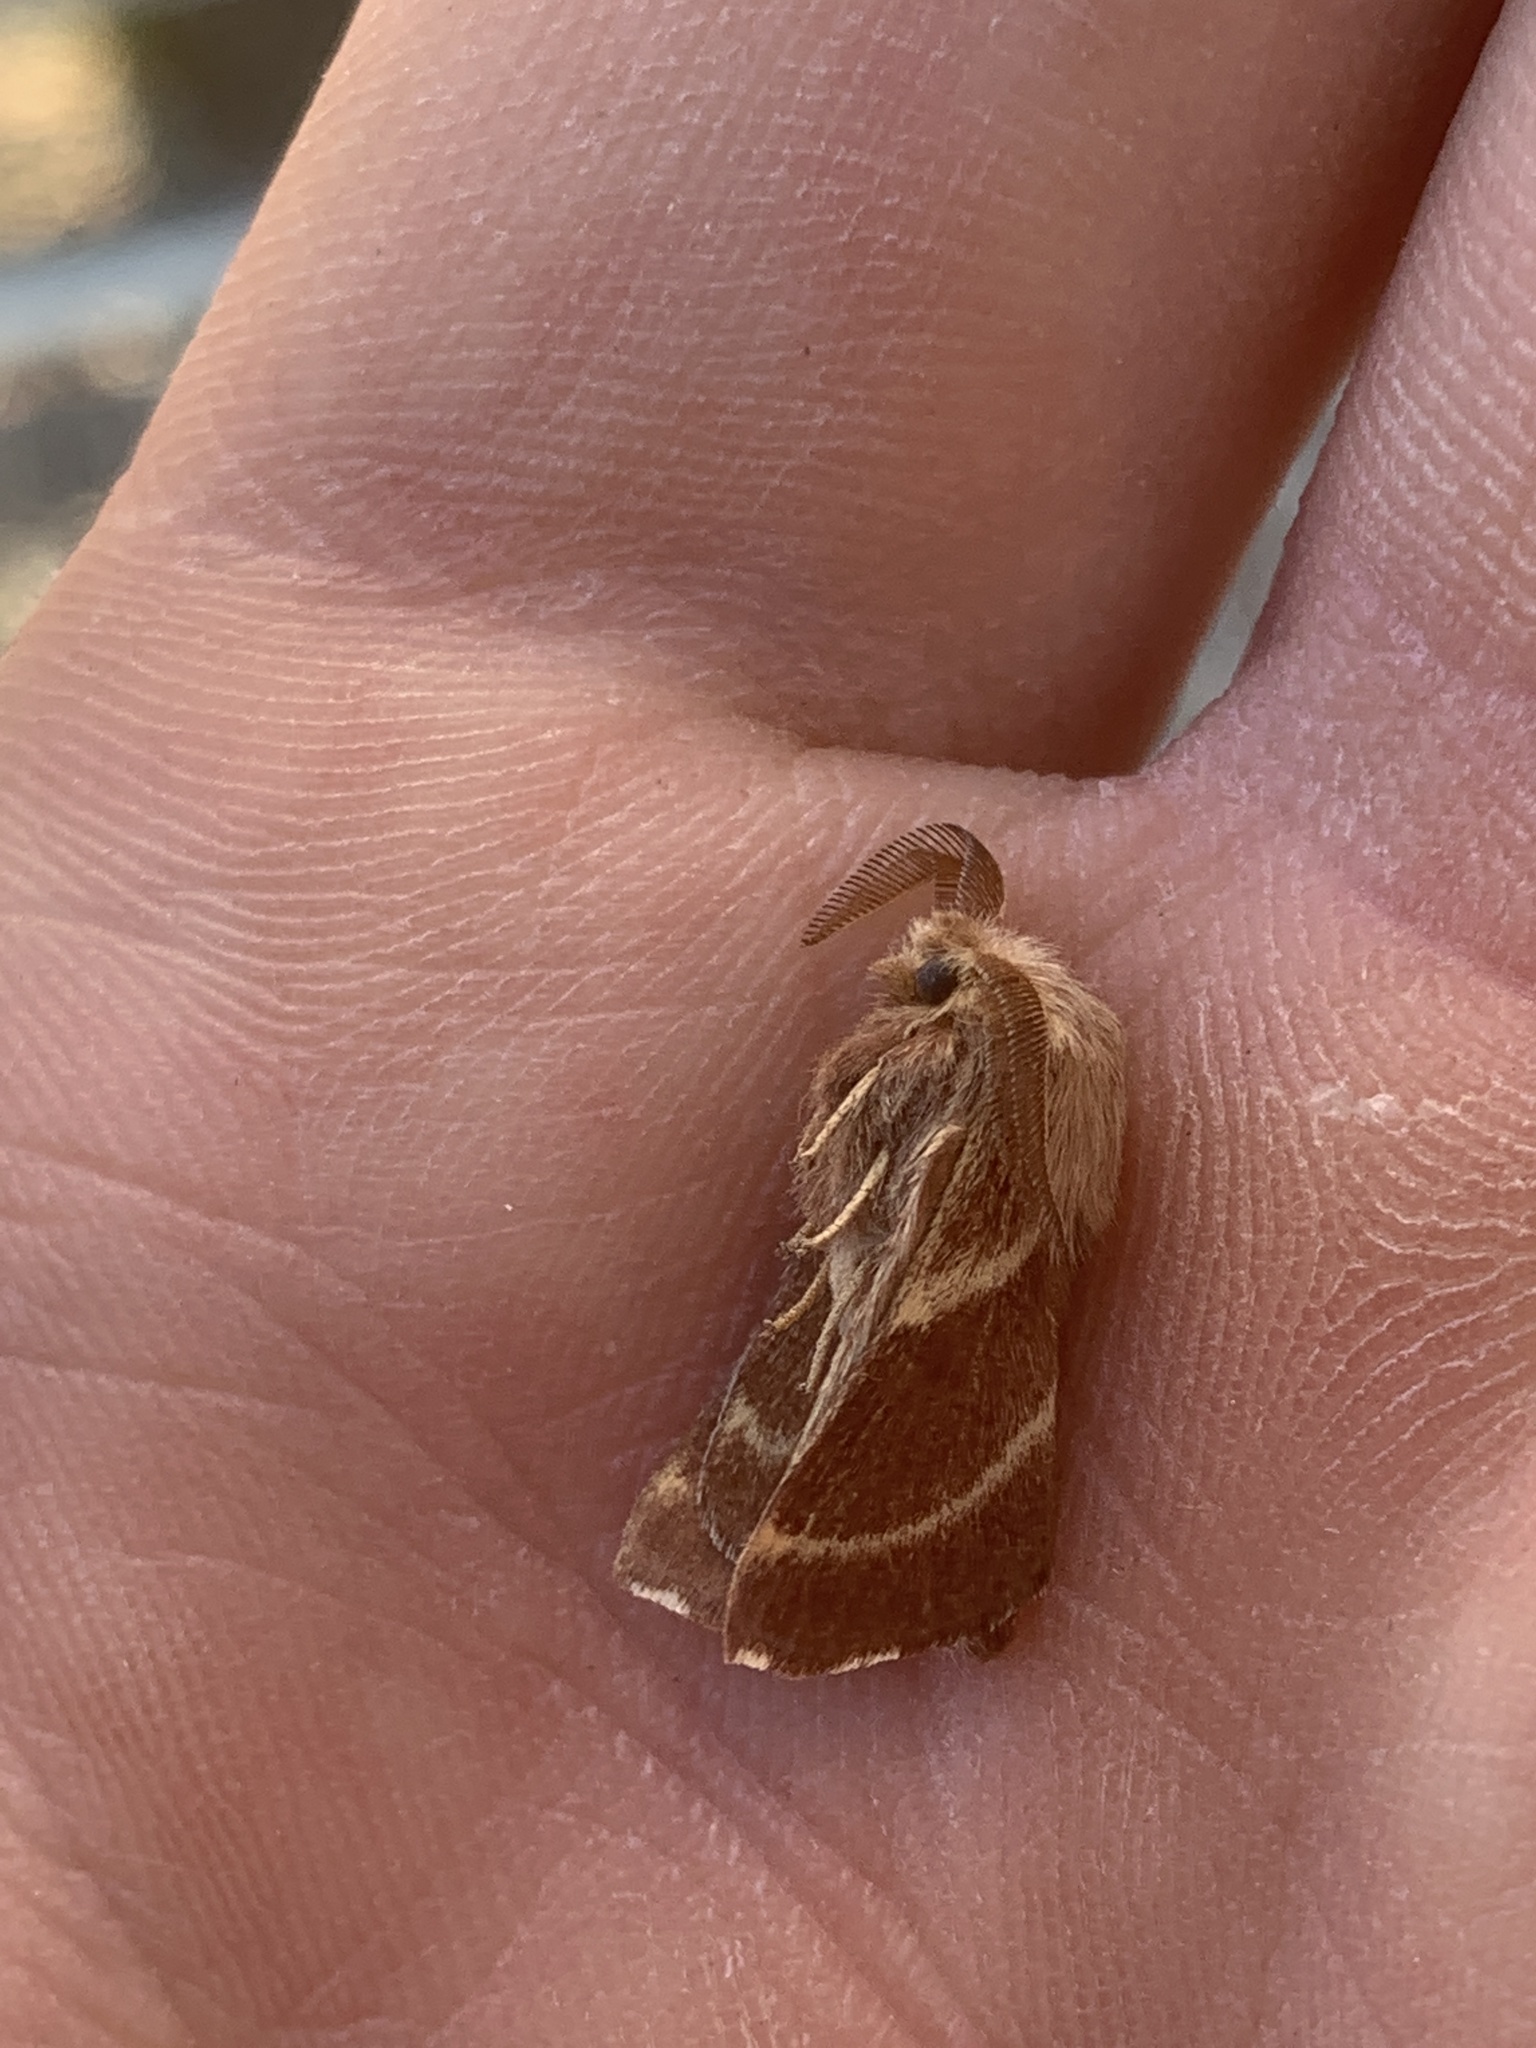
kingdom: Animalia
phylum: Arthropoda
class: Insecta
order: Lepidoptera
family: Lasiocampidae
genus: Malacosoma
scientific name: Malacosoma californica
